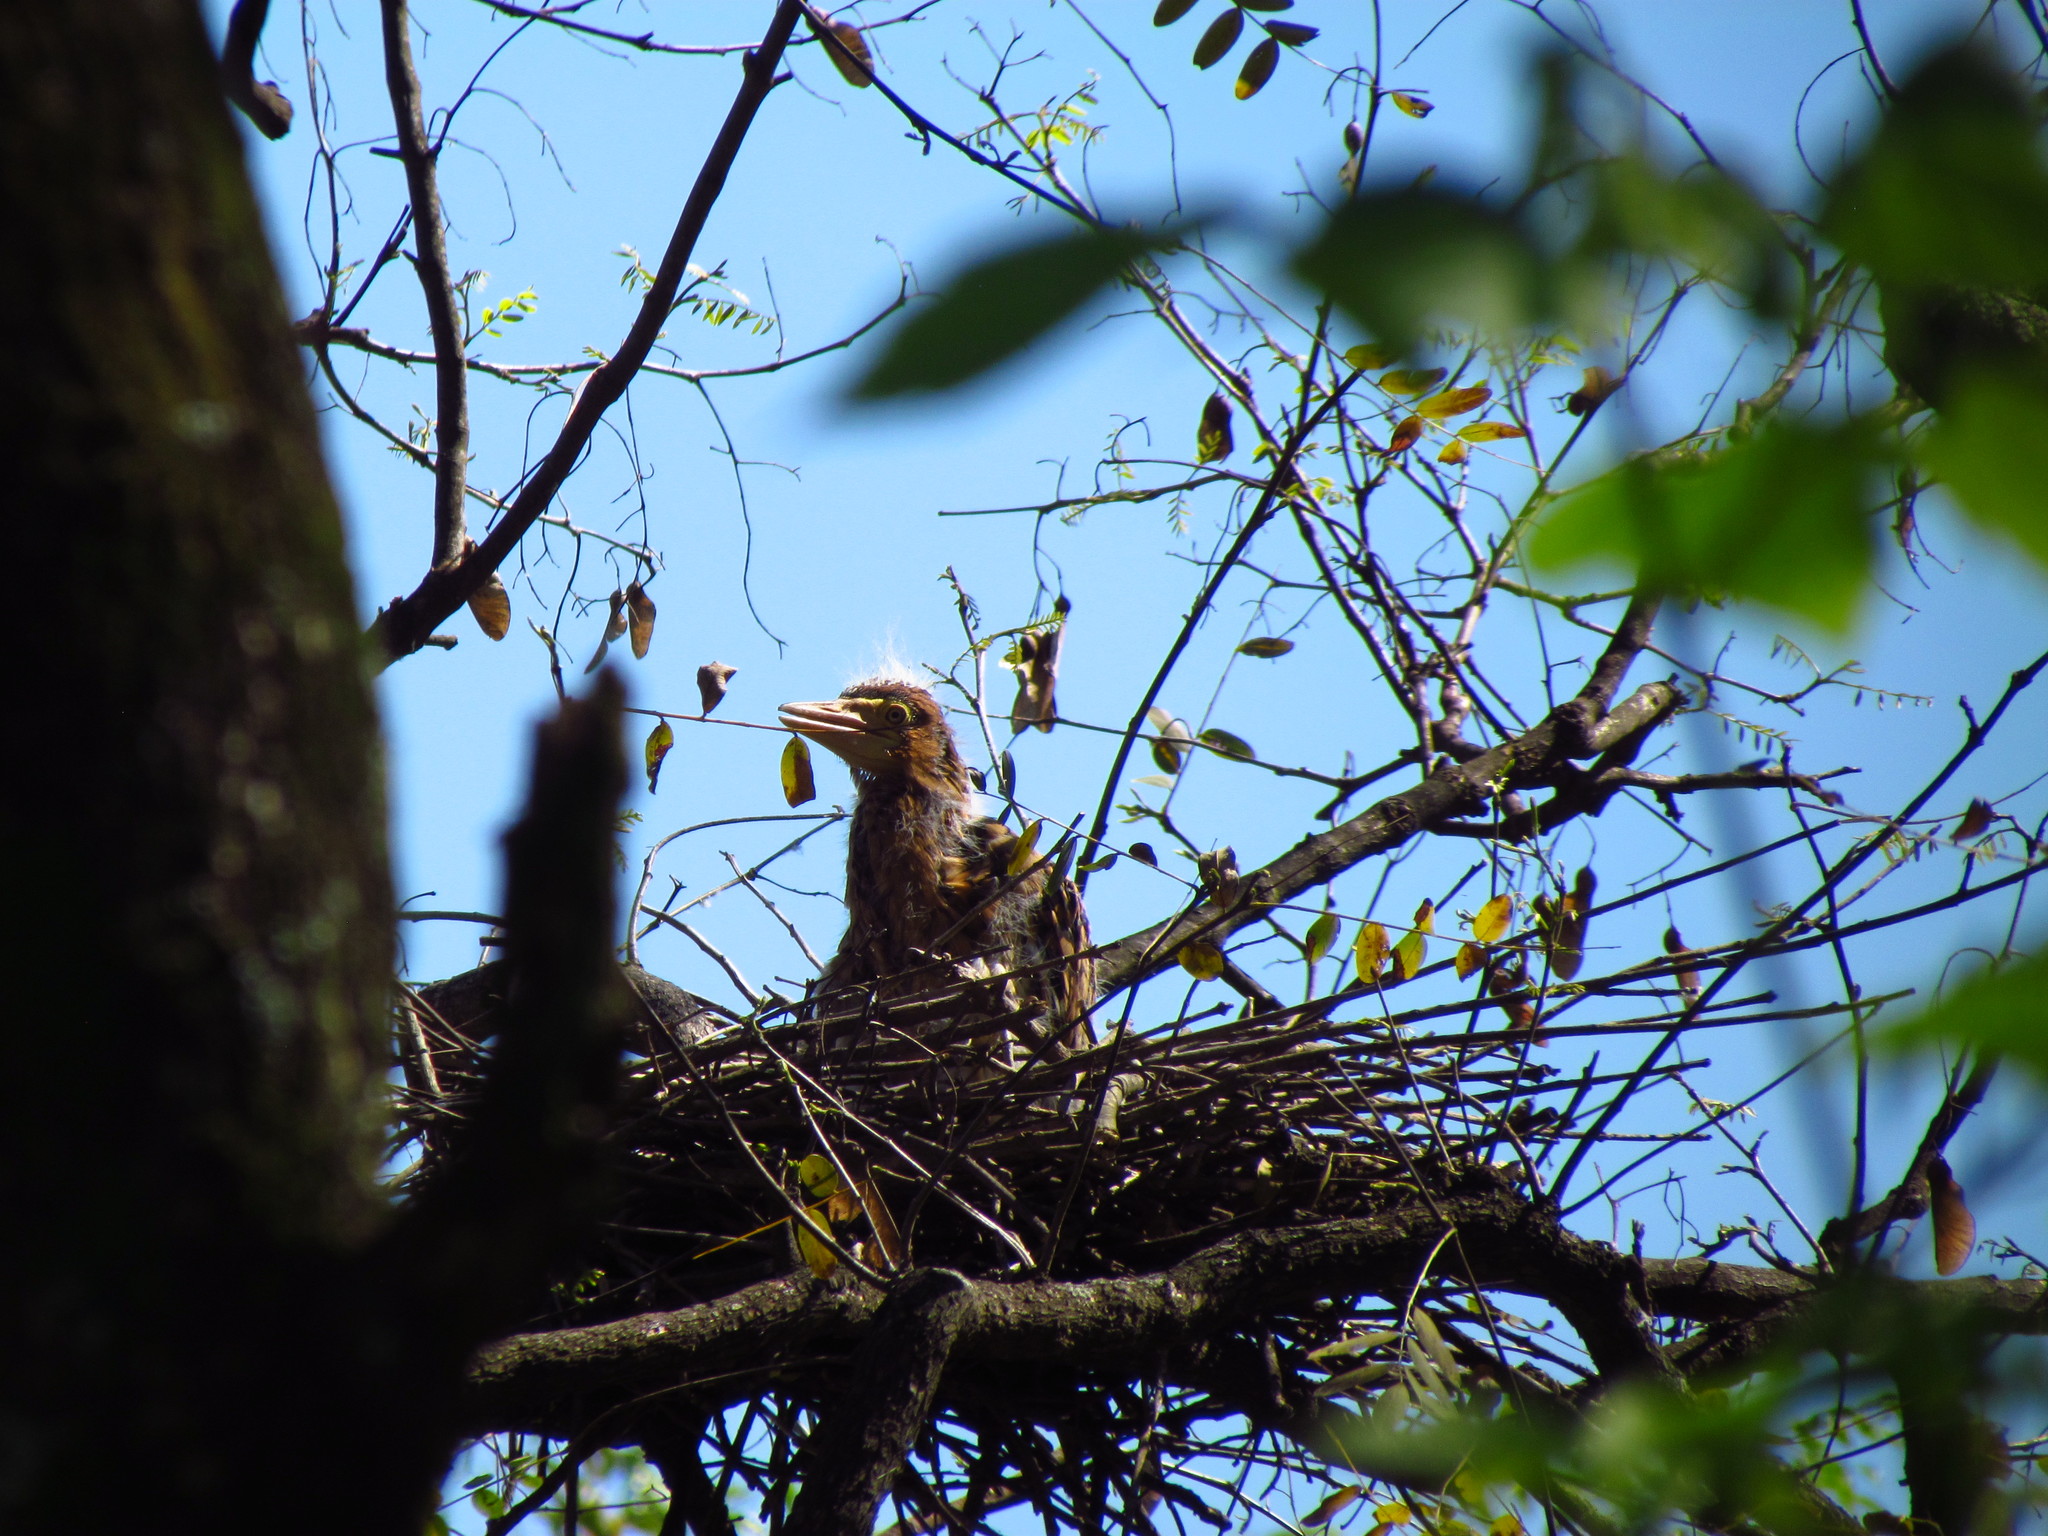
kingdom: Animalia
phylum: Chordata
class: Aves
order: Pelecaniformes
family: Ardeidae
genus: Tigrisoma
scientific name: Tigrisoma lineatum
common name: Rufescent tiger-heron
